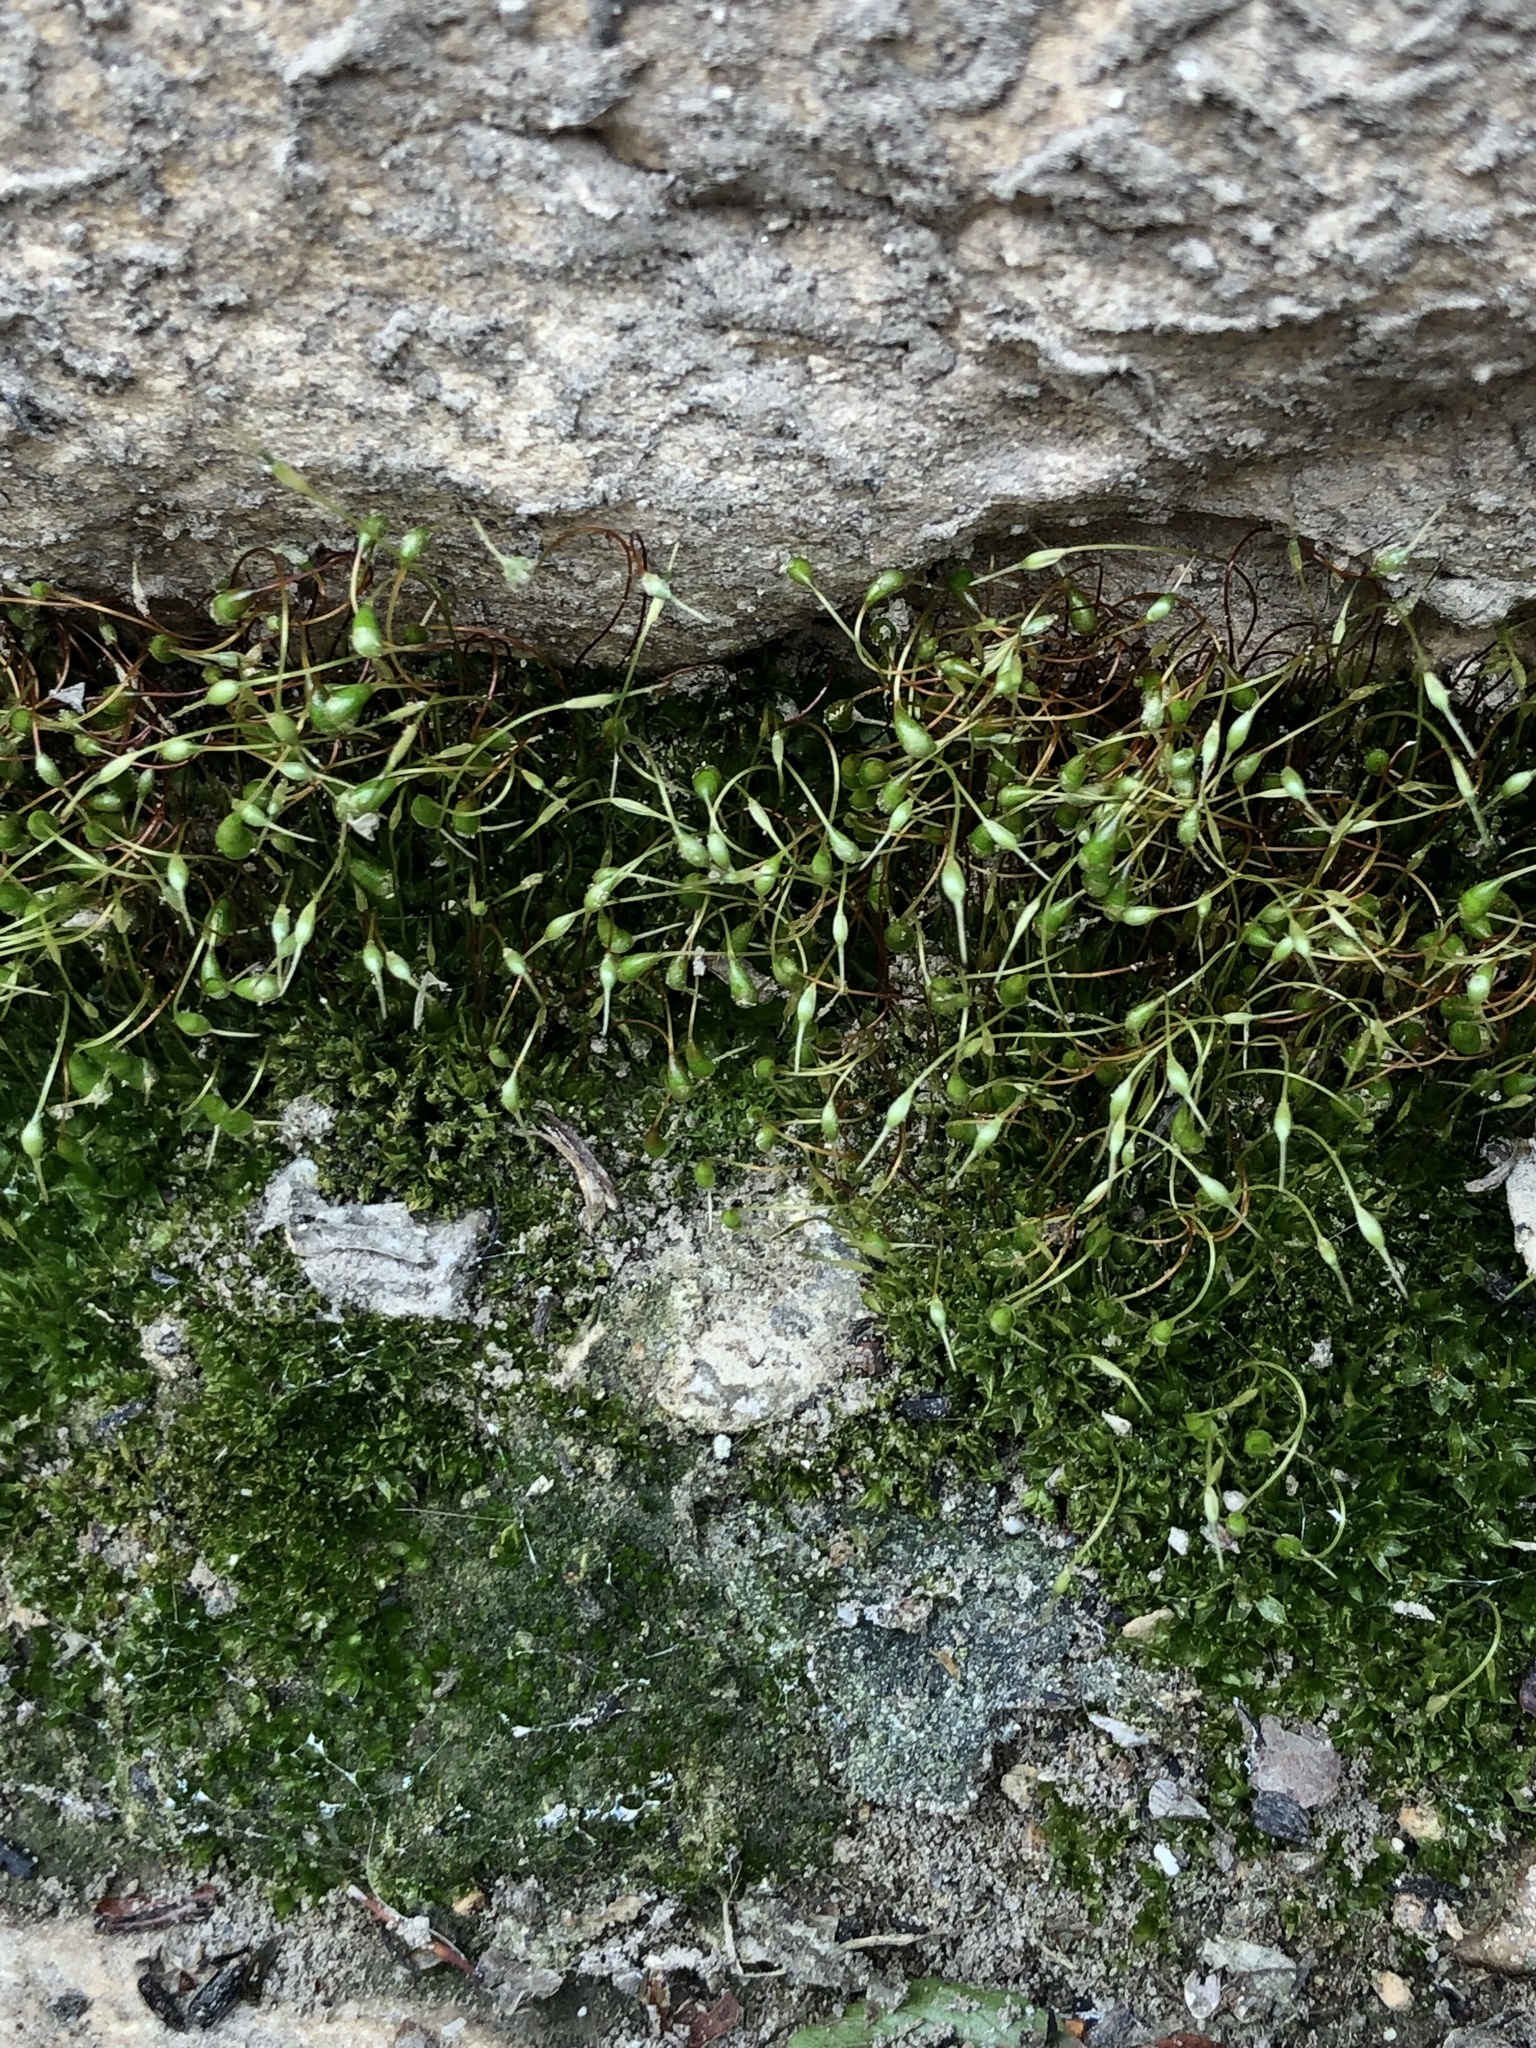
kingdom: Plantae
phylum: Bryophyta
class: Bryopsida
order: Funariales
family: Funariaceae
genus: Funaria
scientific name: Funaria hygrometrica
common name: Common cord moss
